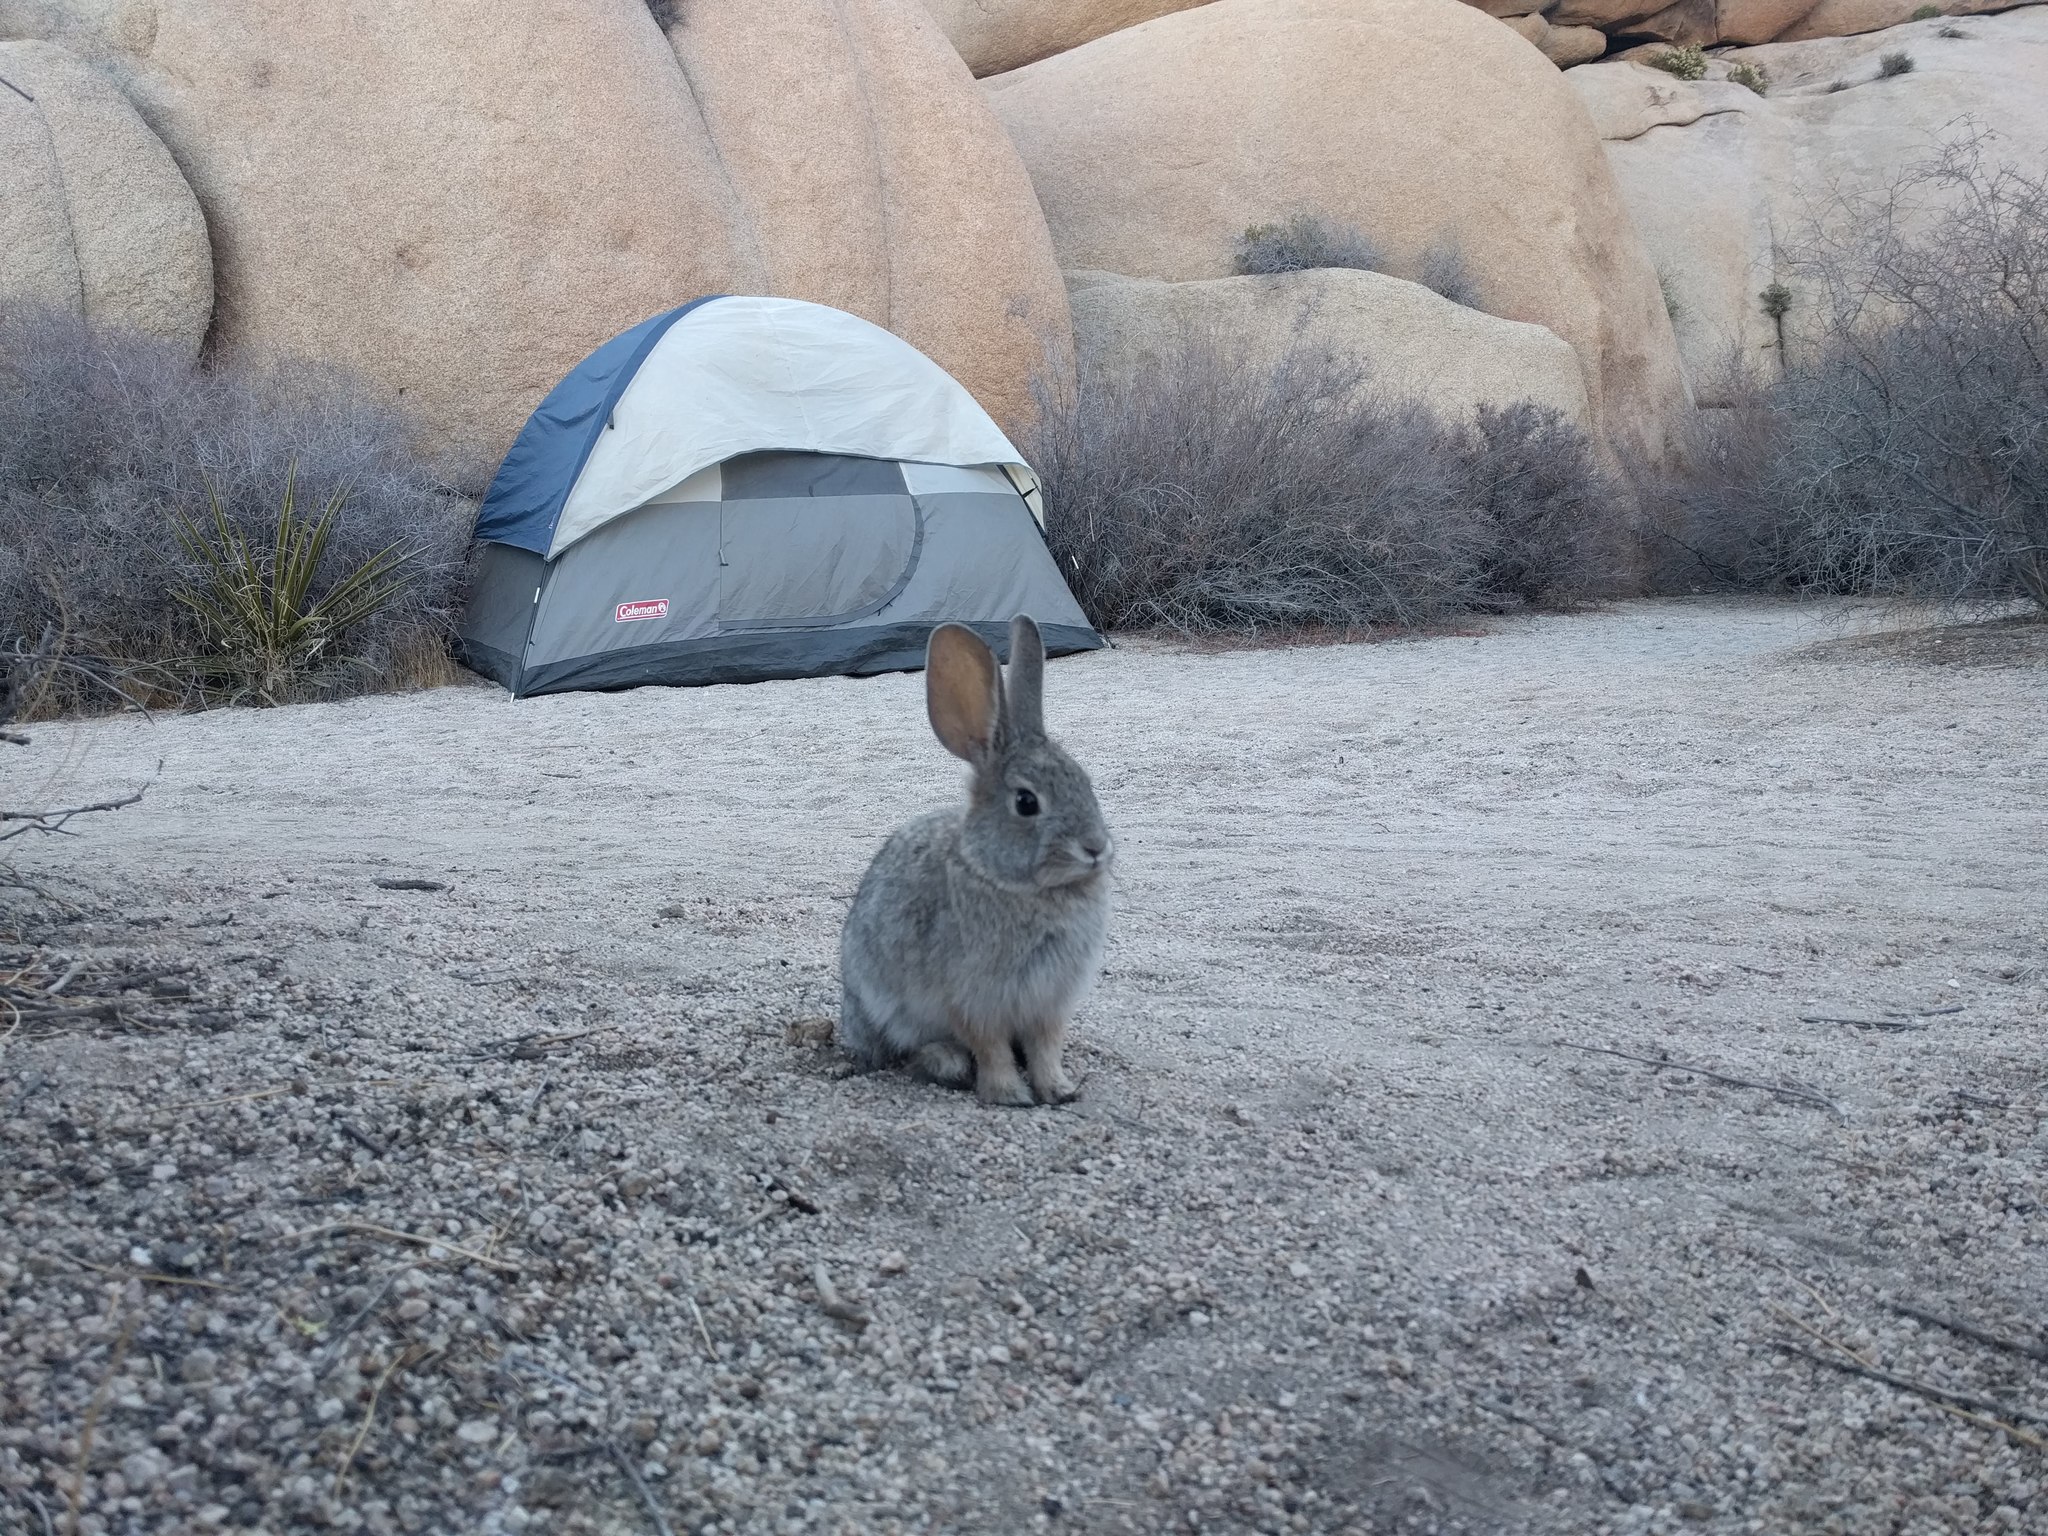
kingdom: Animalia
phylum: Chordata
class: Mammalia
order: Lagomorpha
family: Leporidae
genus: Sylvilagus
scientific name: Sylvilagus audubonii
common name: Desert cottontail
